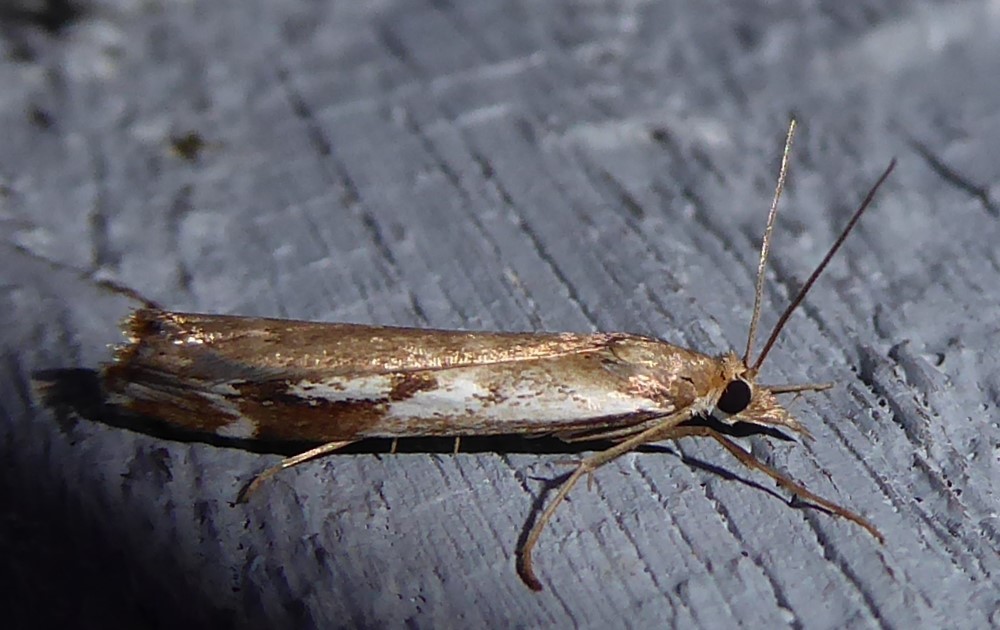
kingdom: Animalia
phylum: Arthropoda
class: Insecta
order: Lepidoptera
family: Crambidae
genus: Orocrambus
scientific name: Orocrambus vulgaris
